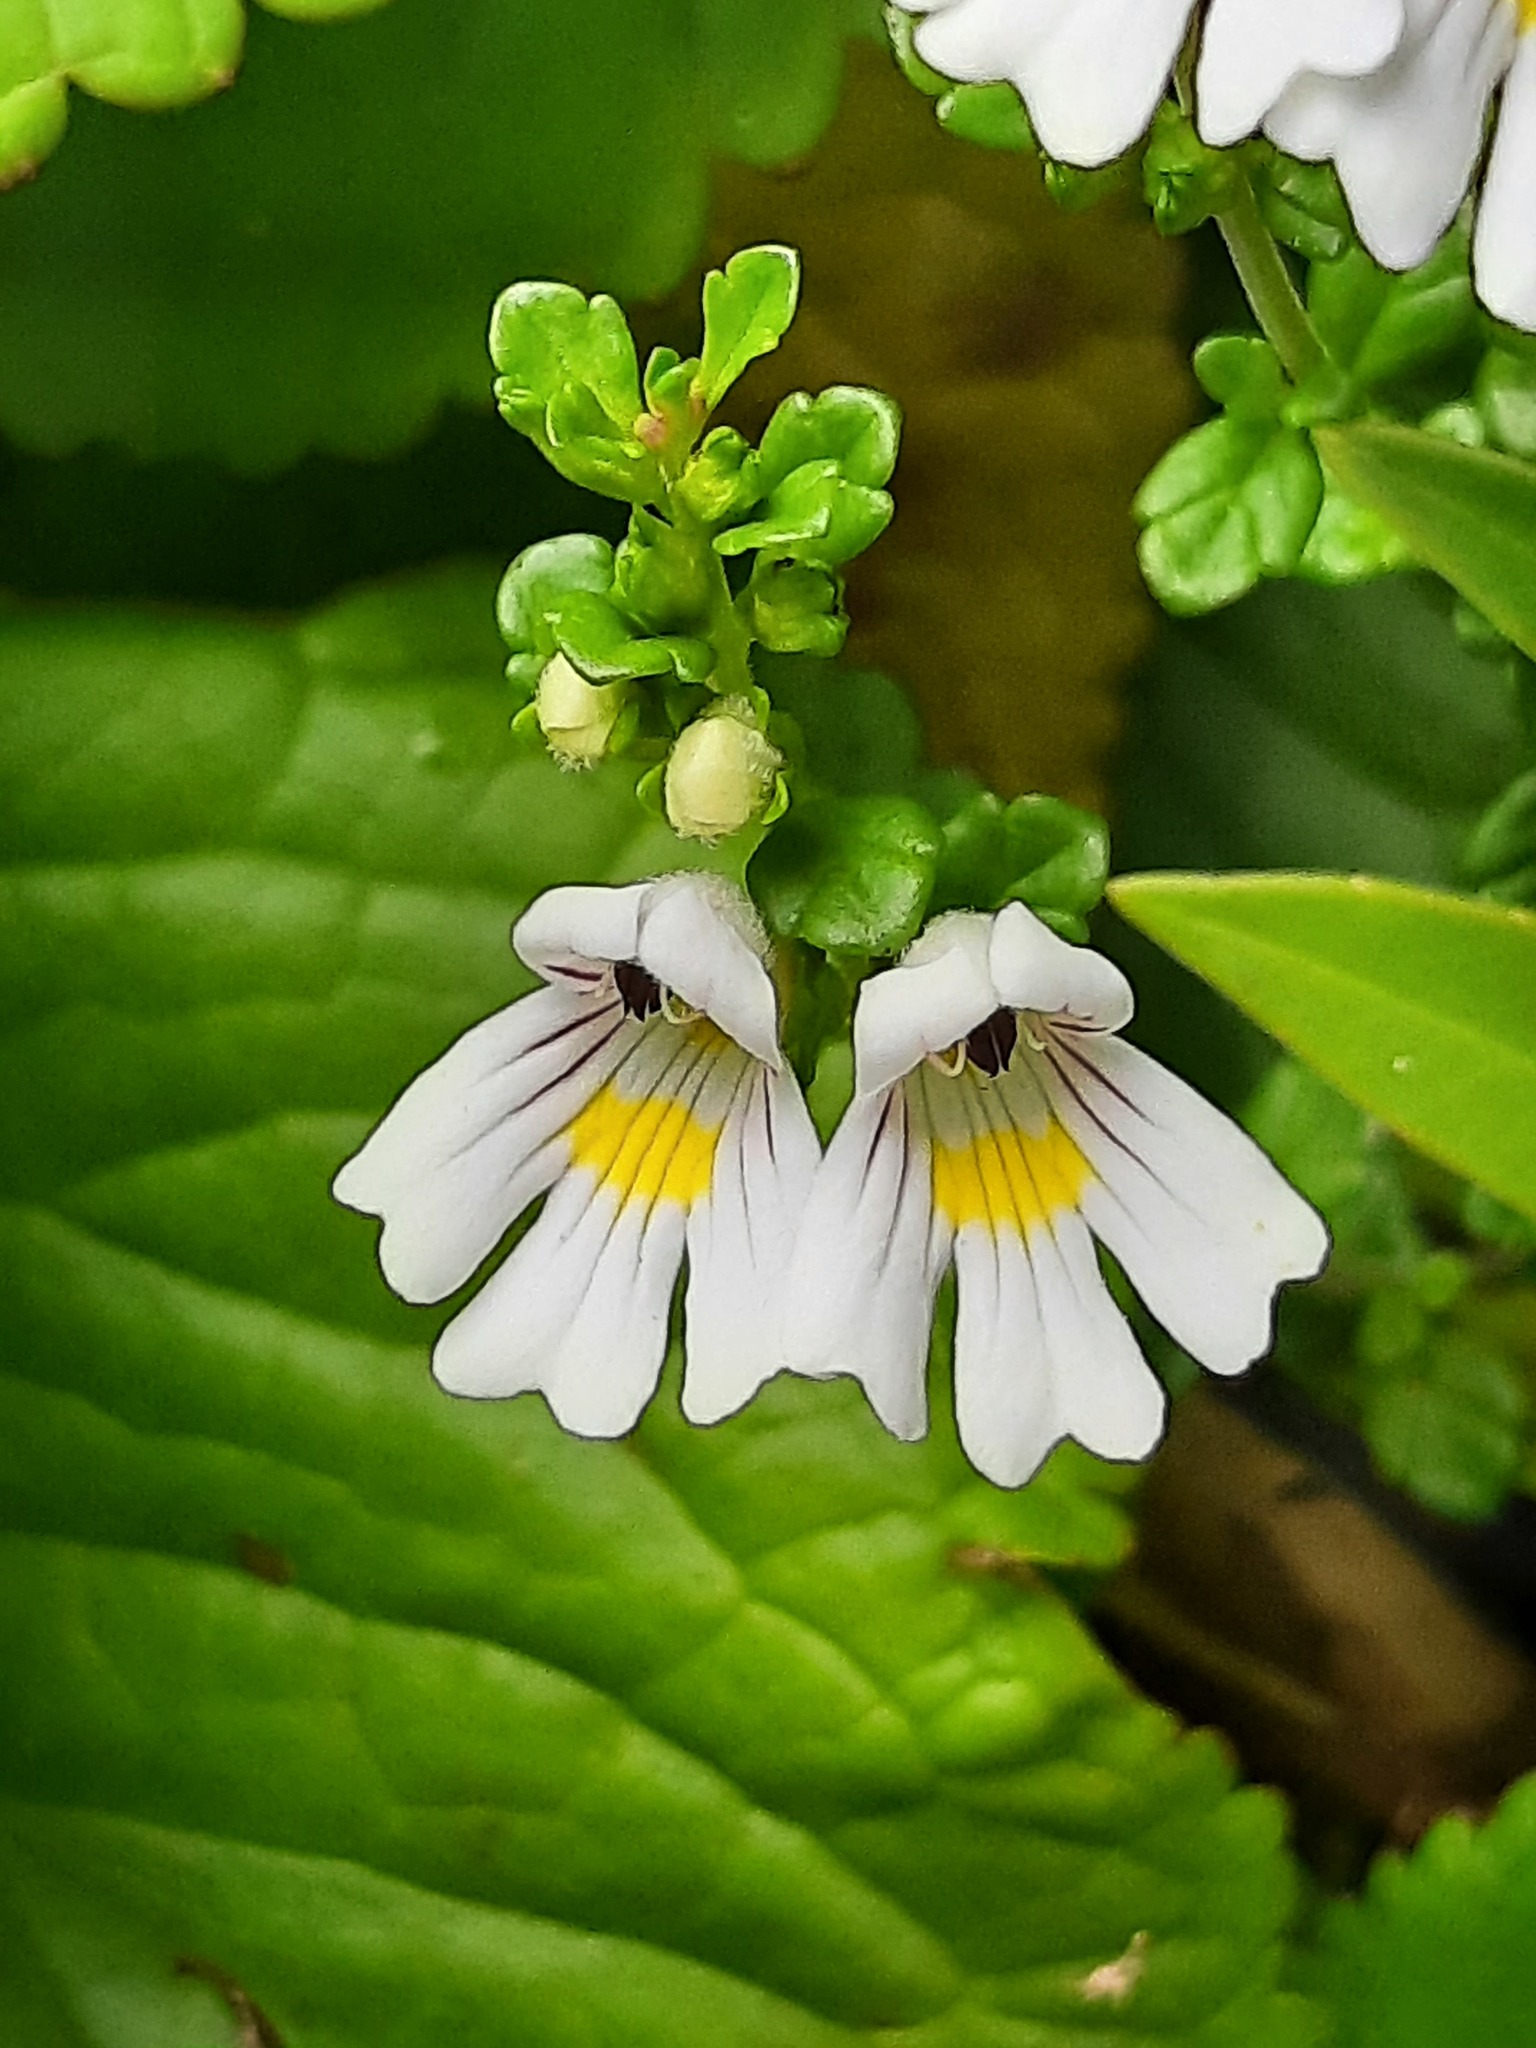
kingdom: Plantae
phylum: Tracheophyta
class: Magnoliopsida
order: Lamiales
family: Orobanchaceae
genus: Euphrasia
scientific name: Euphrasia cuneata
